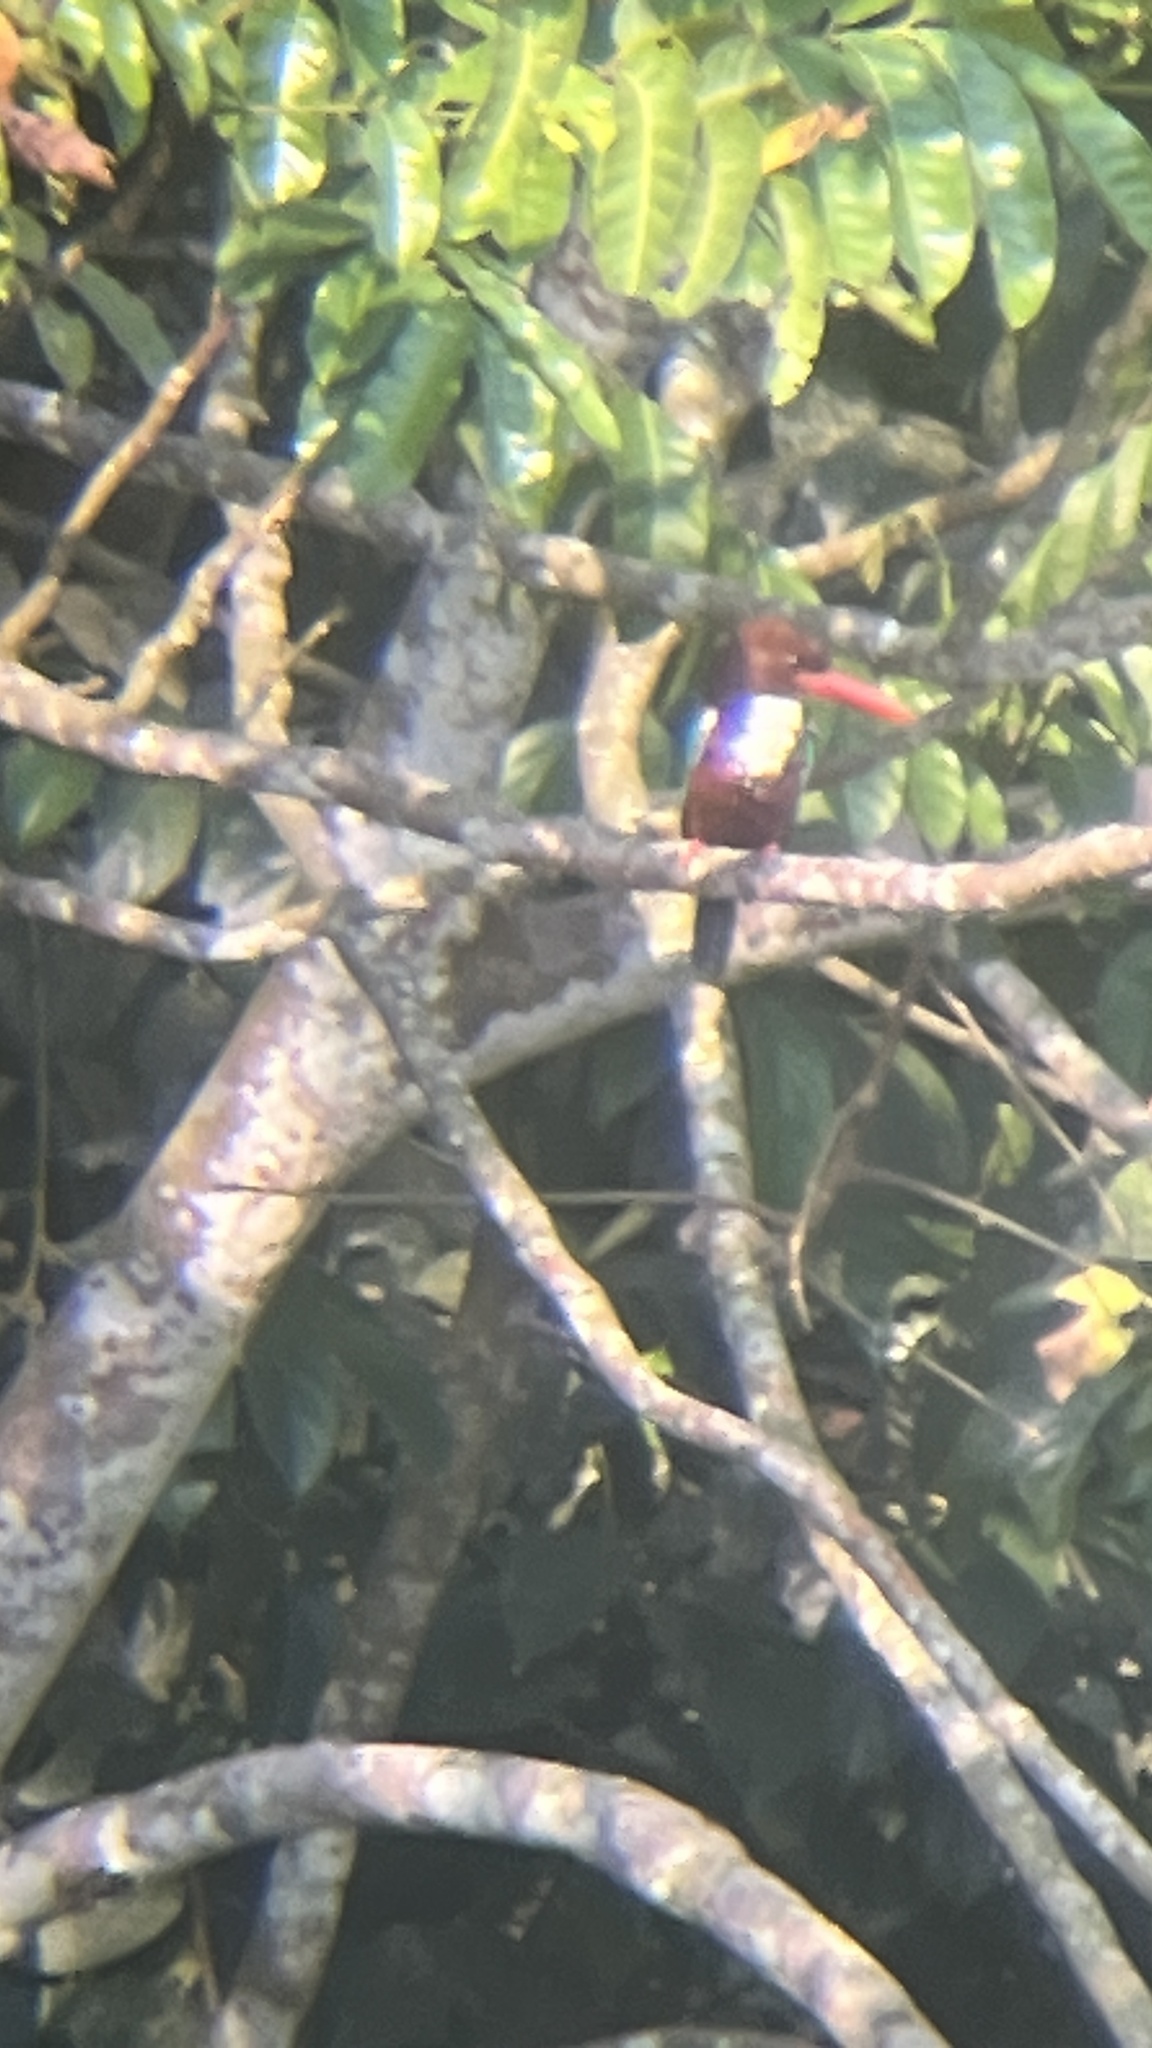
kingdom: Animalia
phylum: Chordata
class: Aves
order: Coraciiformes
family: Alcedinidae
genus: Halcyon
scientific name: Halcyon smyrnensis
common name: White-throated kingfisher
